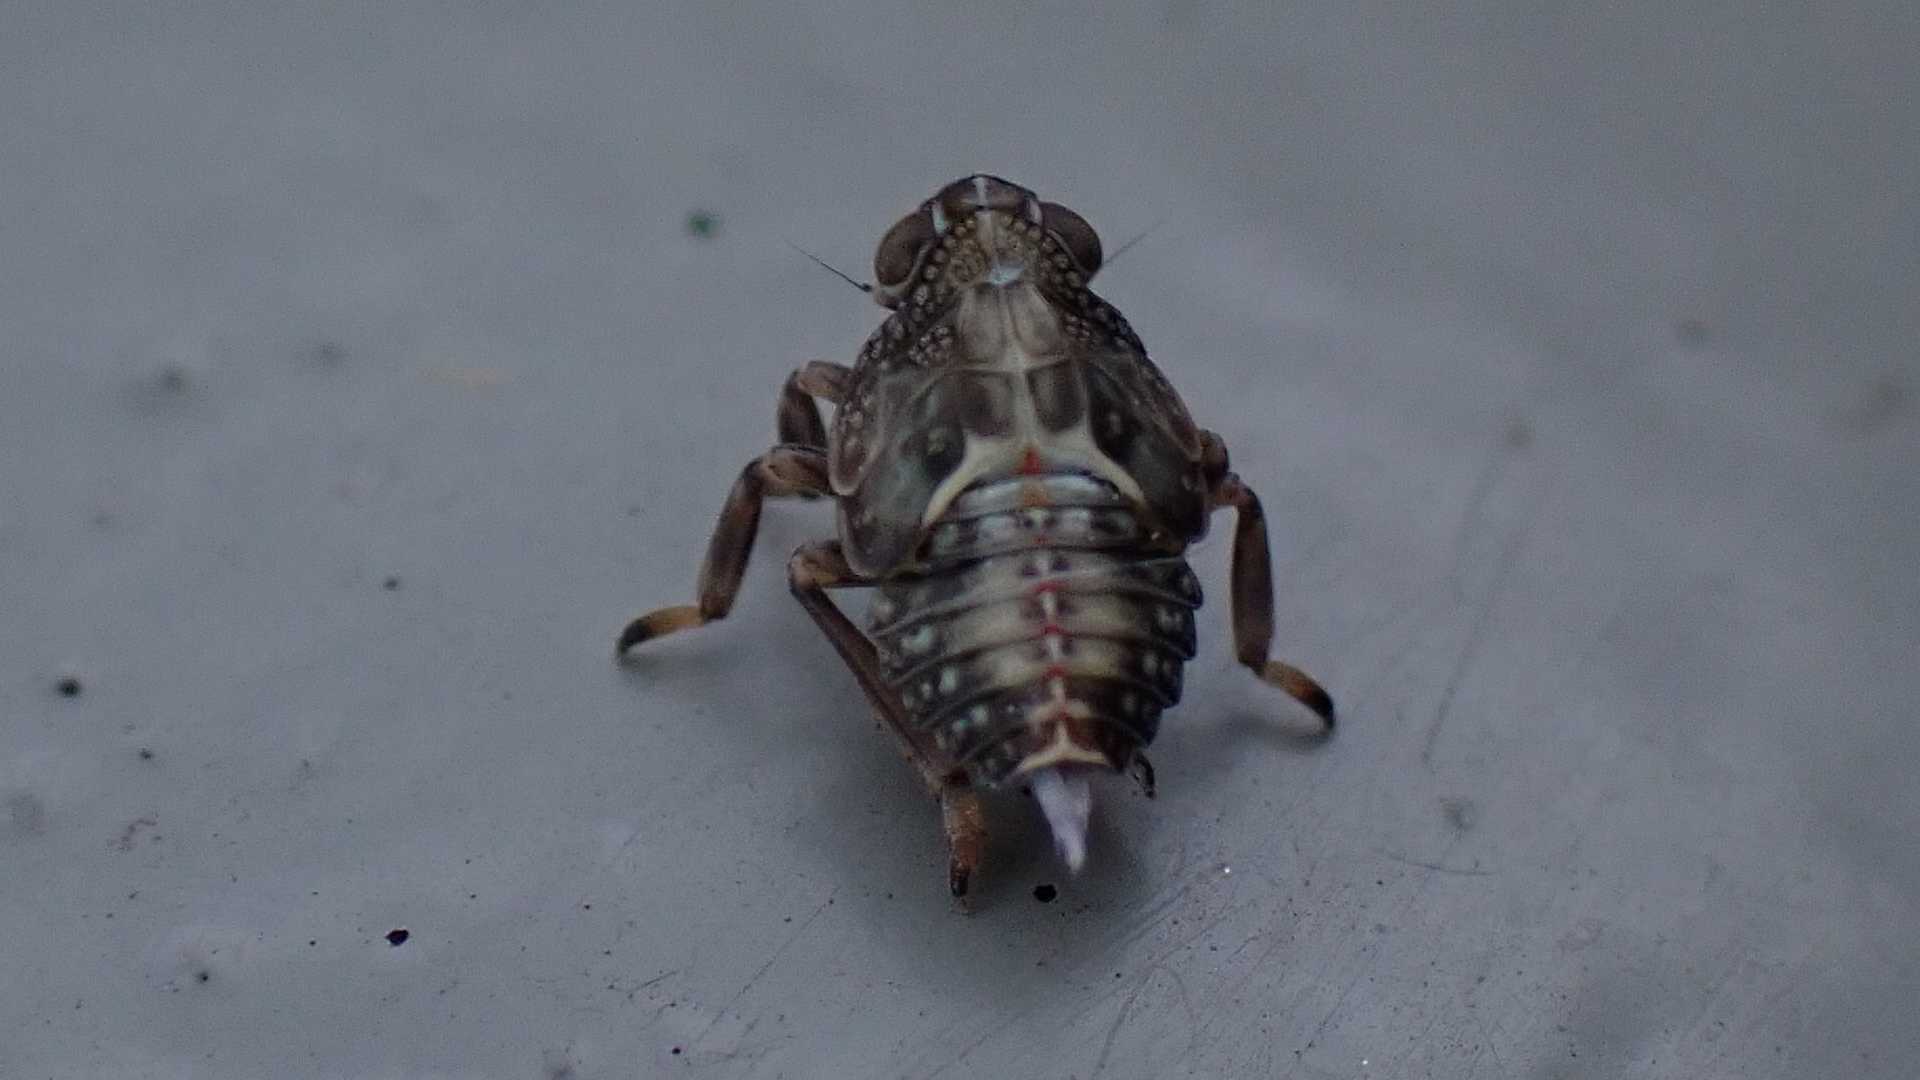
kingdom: Animalia
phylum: Arthropoda
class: Insecta
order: Hemiptera
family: Issidae
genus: Issus
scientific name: Issus coleoptratus
